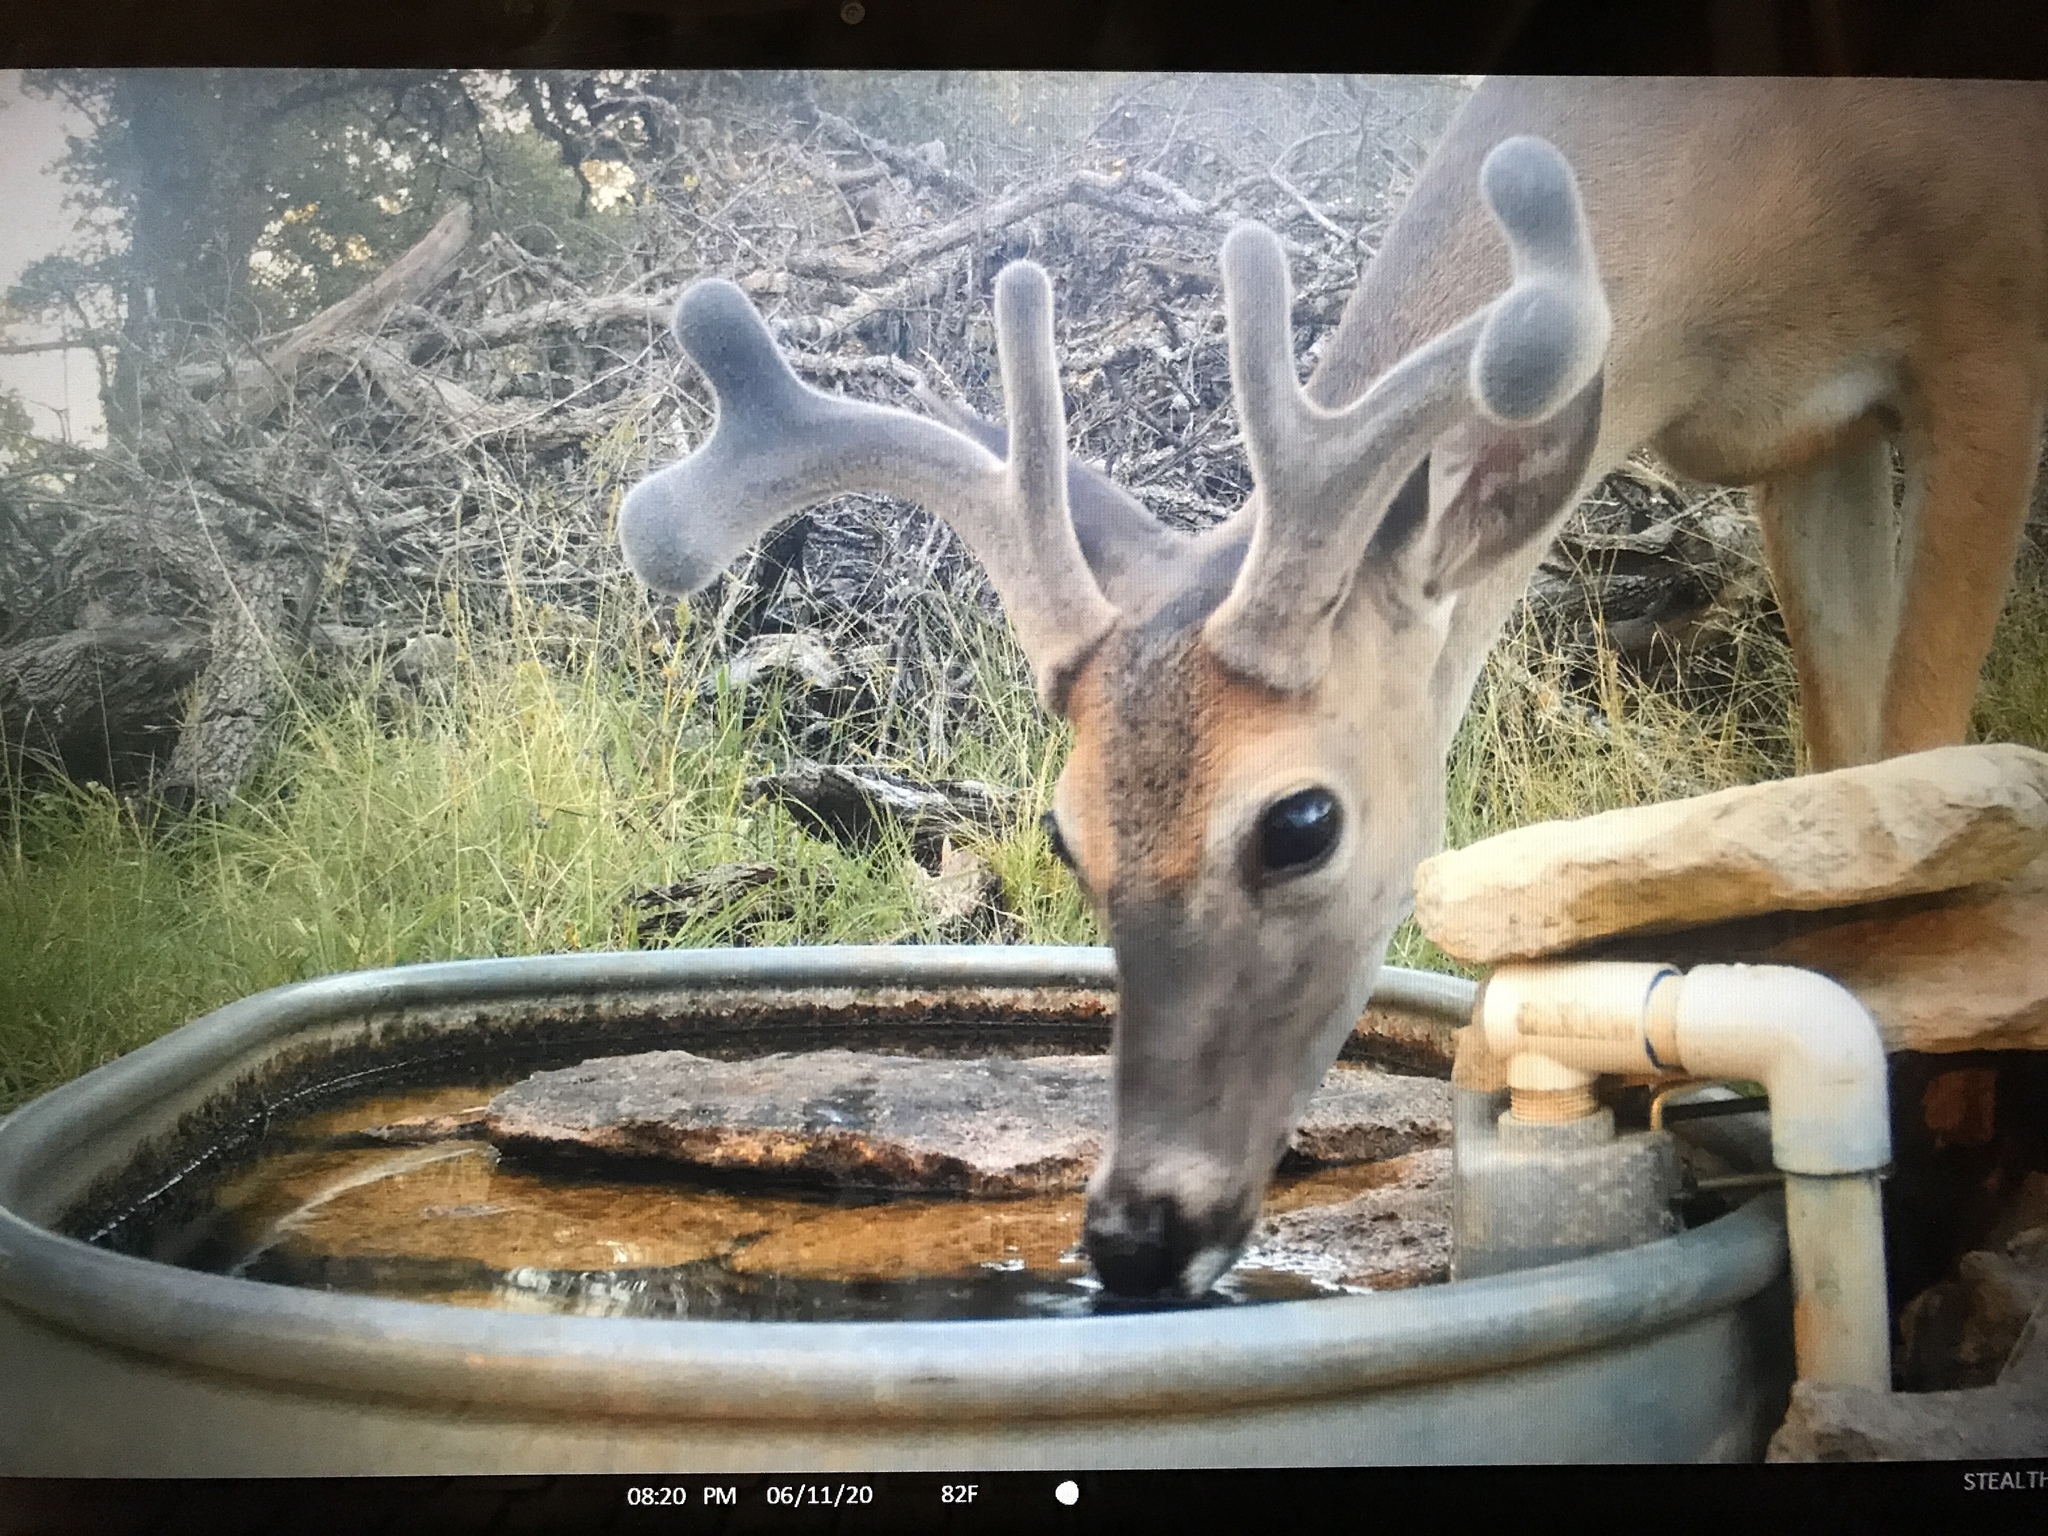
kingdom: Animalia
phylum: Chordata
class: Mammalia
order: Artiodactyla
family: Cervidae
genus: Odocoileus
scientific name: Odocoileus virginianus
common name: White-tailed deer
